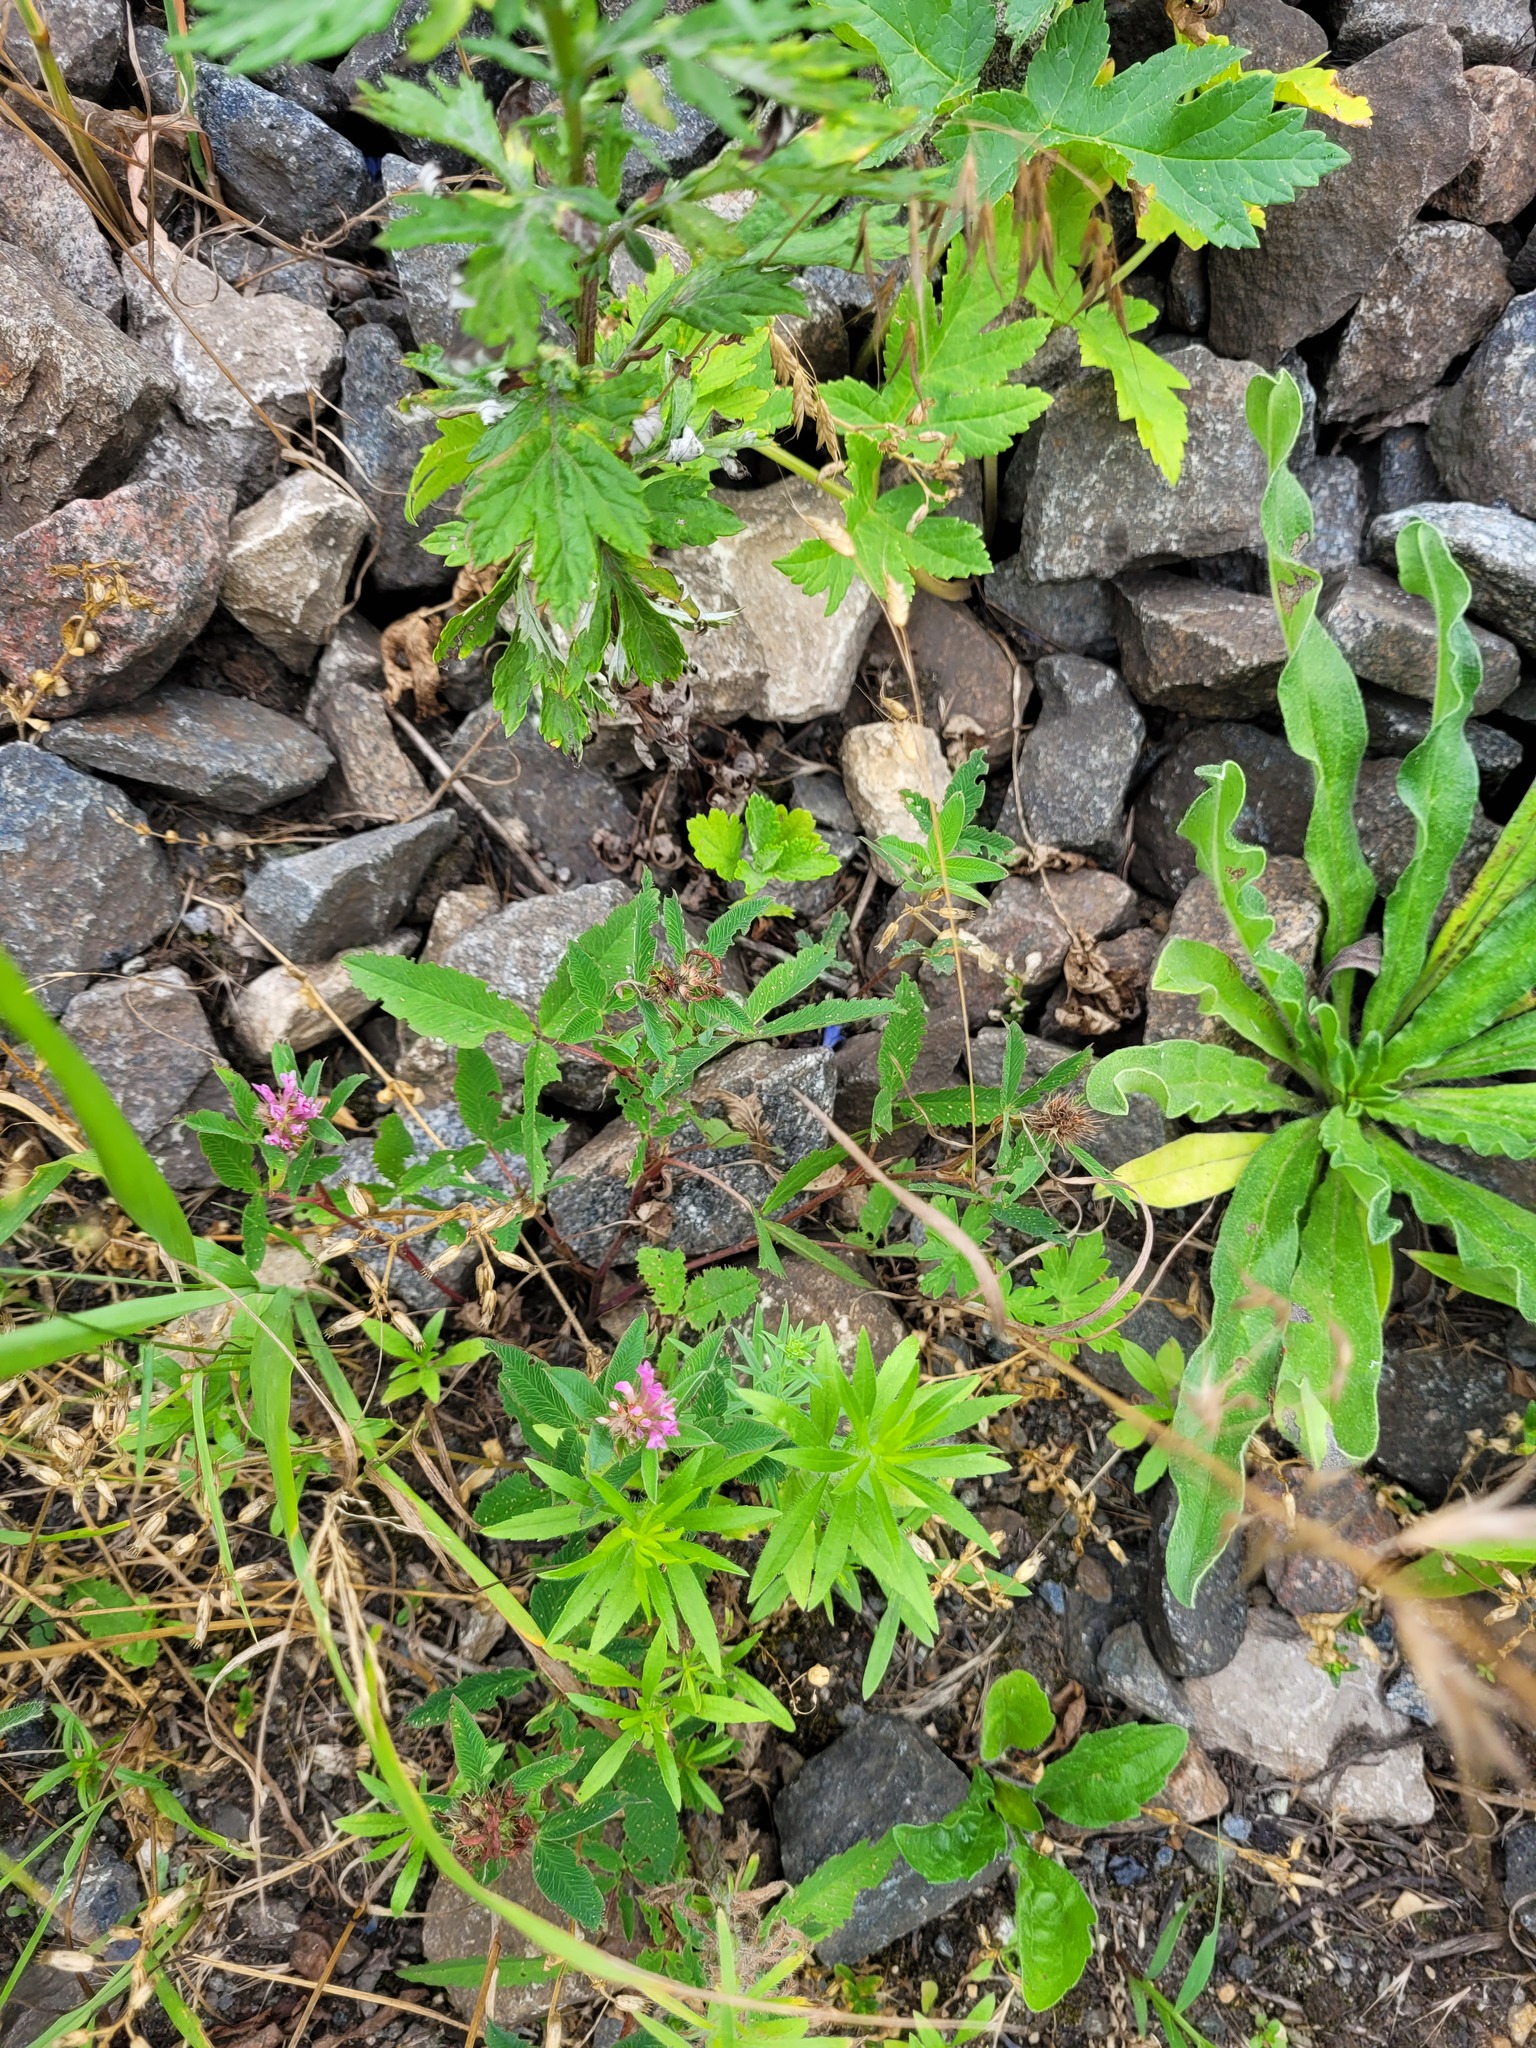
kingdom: Plantae
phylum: Tracheophyta
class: Magnoliopsida
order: Fabales
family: Fabaceae
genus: Trifolium
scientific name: Trifolium medium
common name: Zigzag clover
